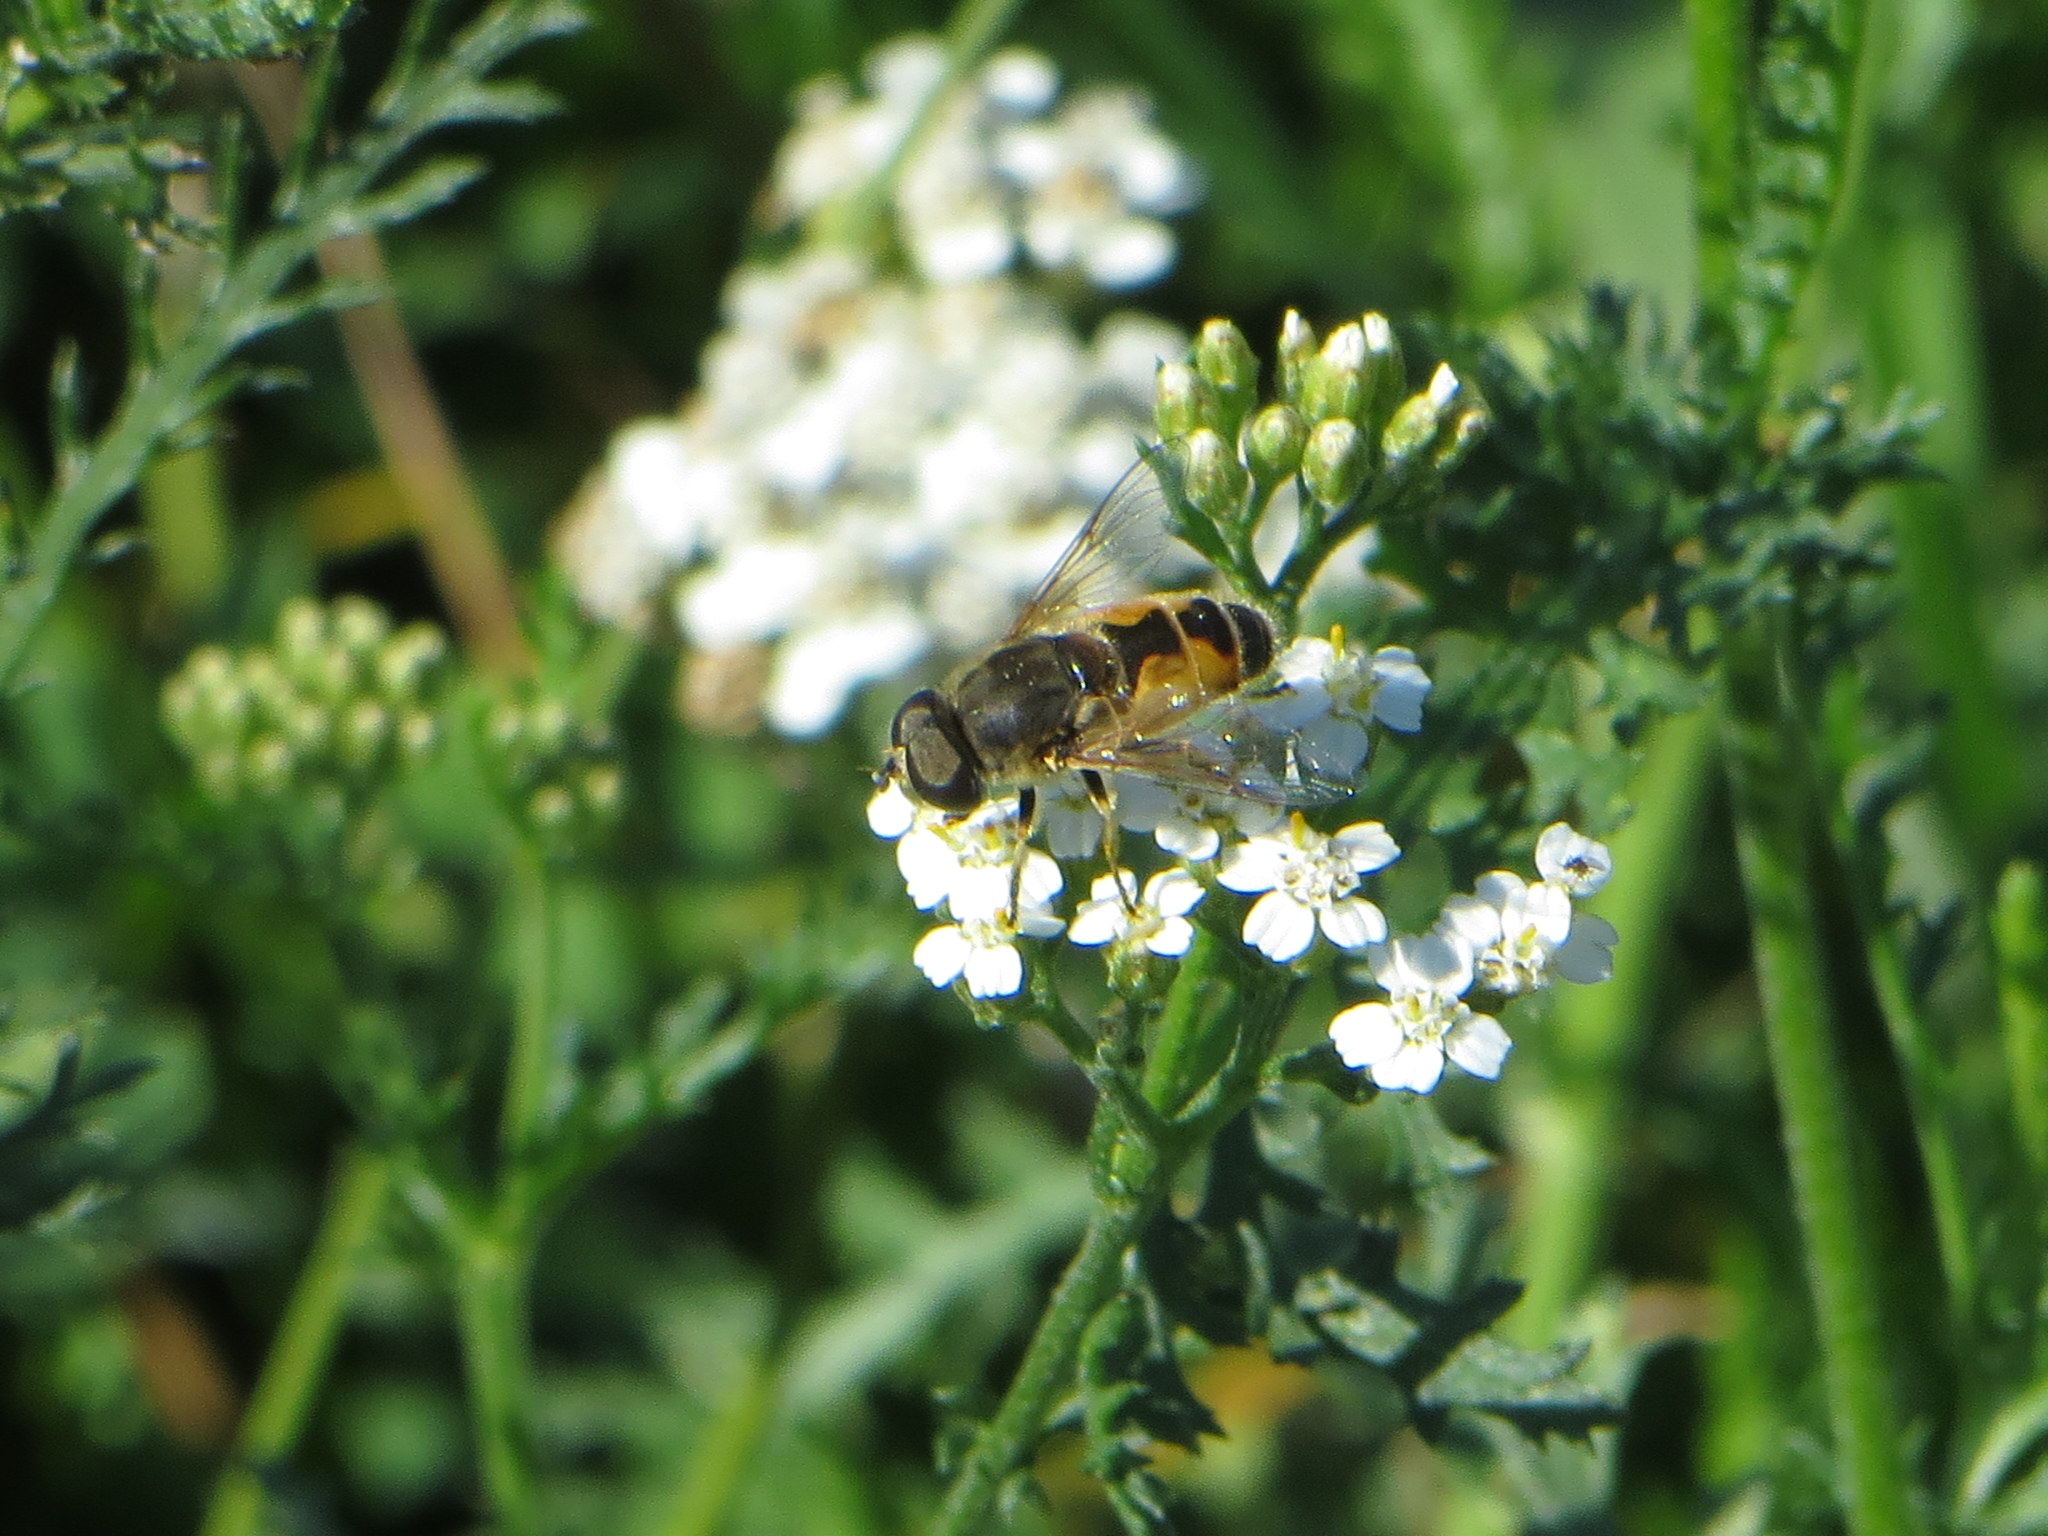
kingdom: Animalia
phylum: Arthropoda
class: Insecta
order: Diptera
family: Syrphidae
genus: Eristalis
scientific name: Eristalis arbustorum
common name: Hover fly
